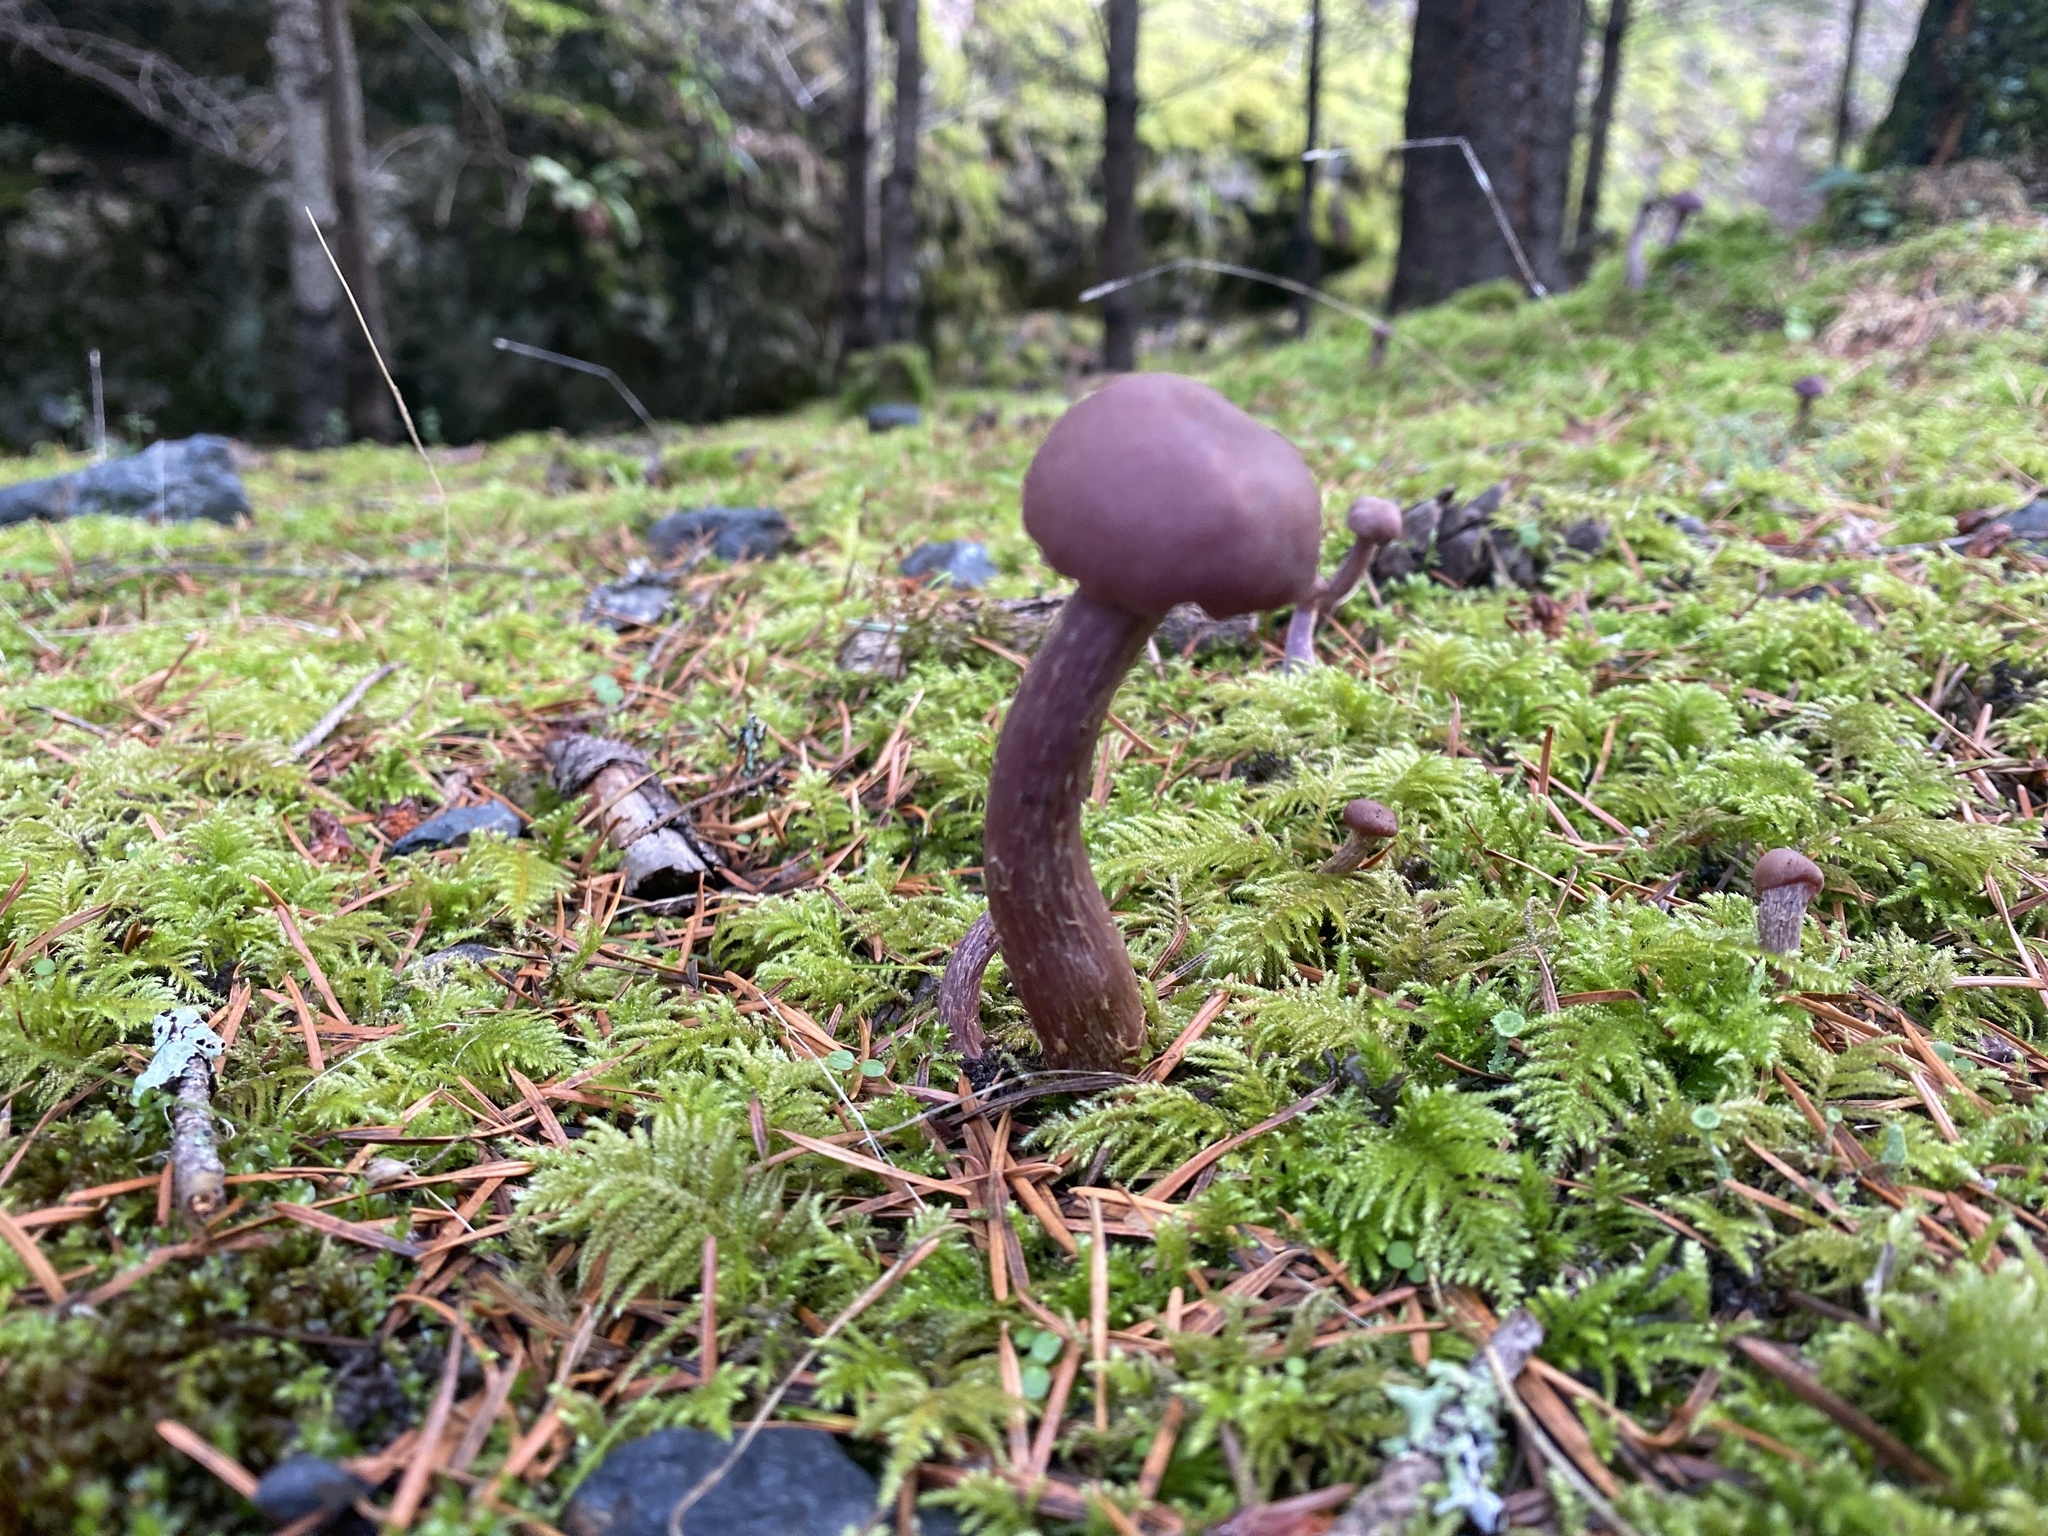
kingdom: Fungi
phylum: Basidiomycota
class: Agaricomycetes
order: Agaricales
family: Hydnangiaceae
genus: Laccaria
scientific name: Laccaria amethysteo-occidentalis
